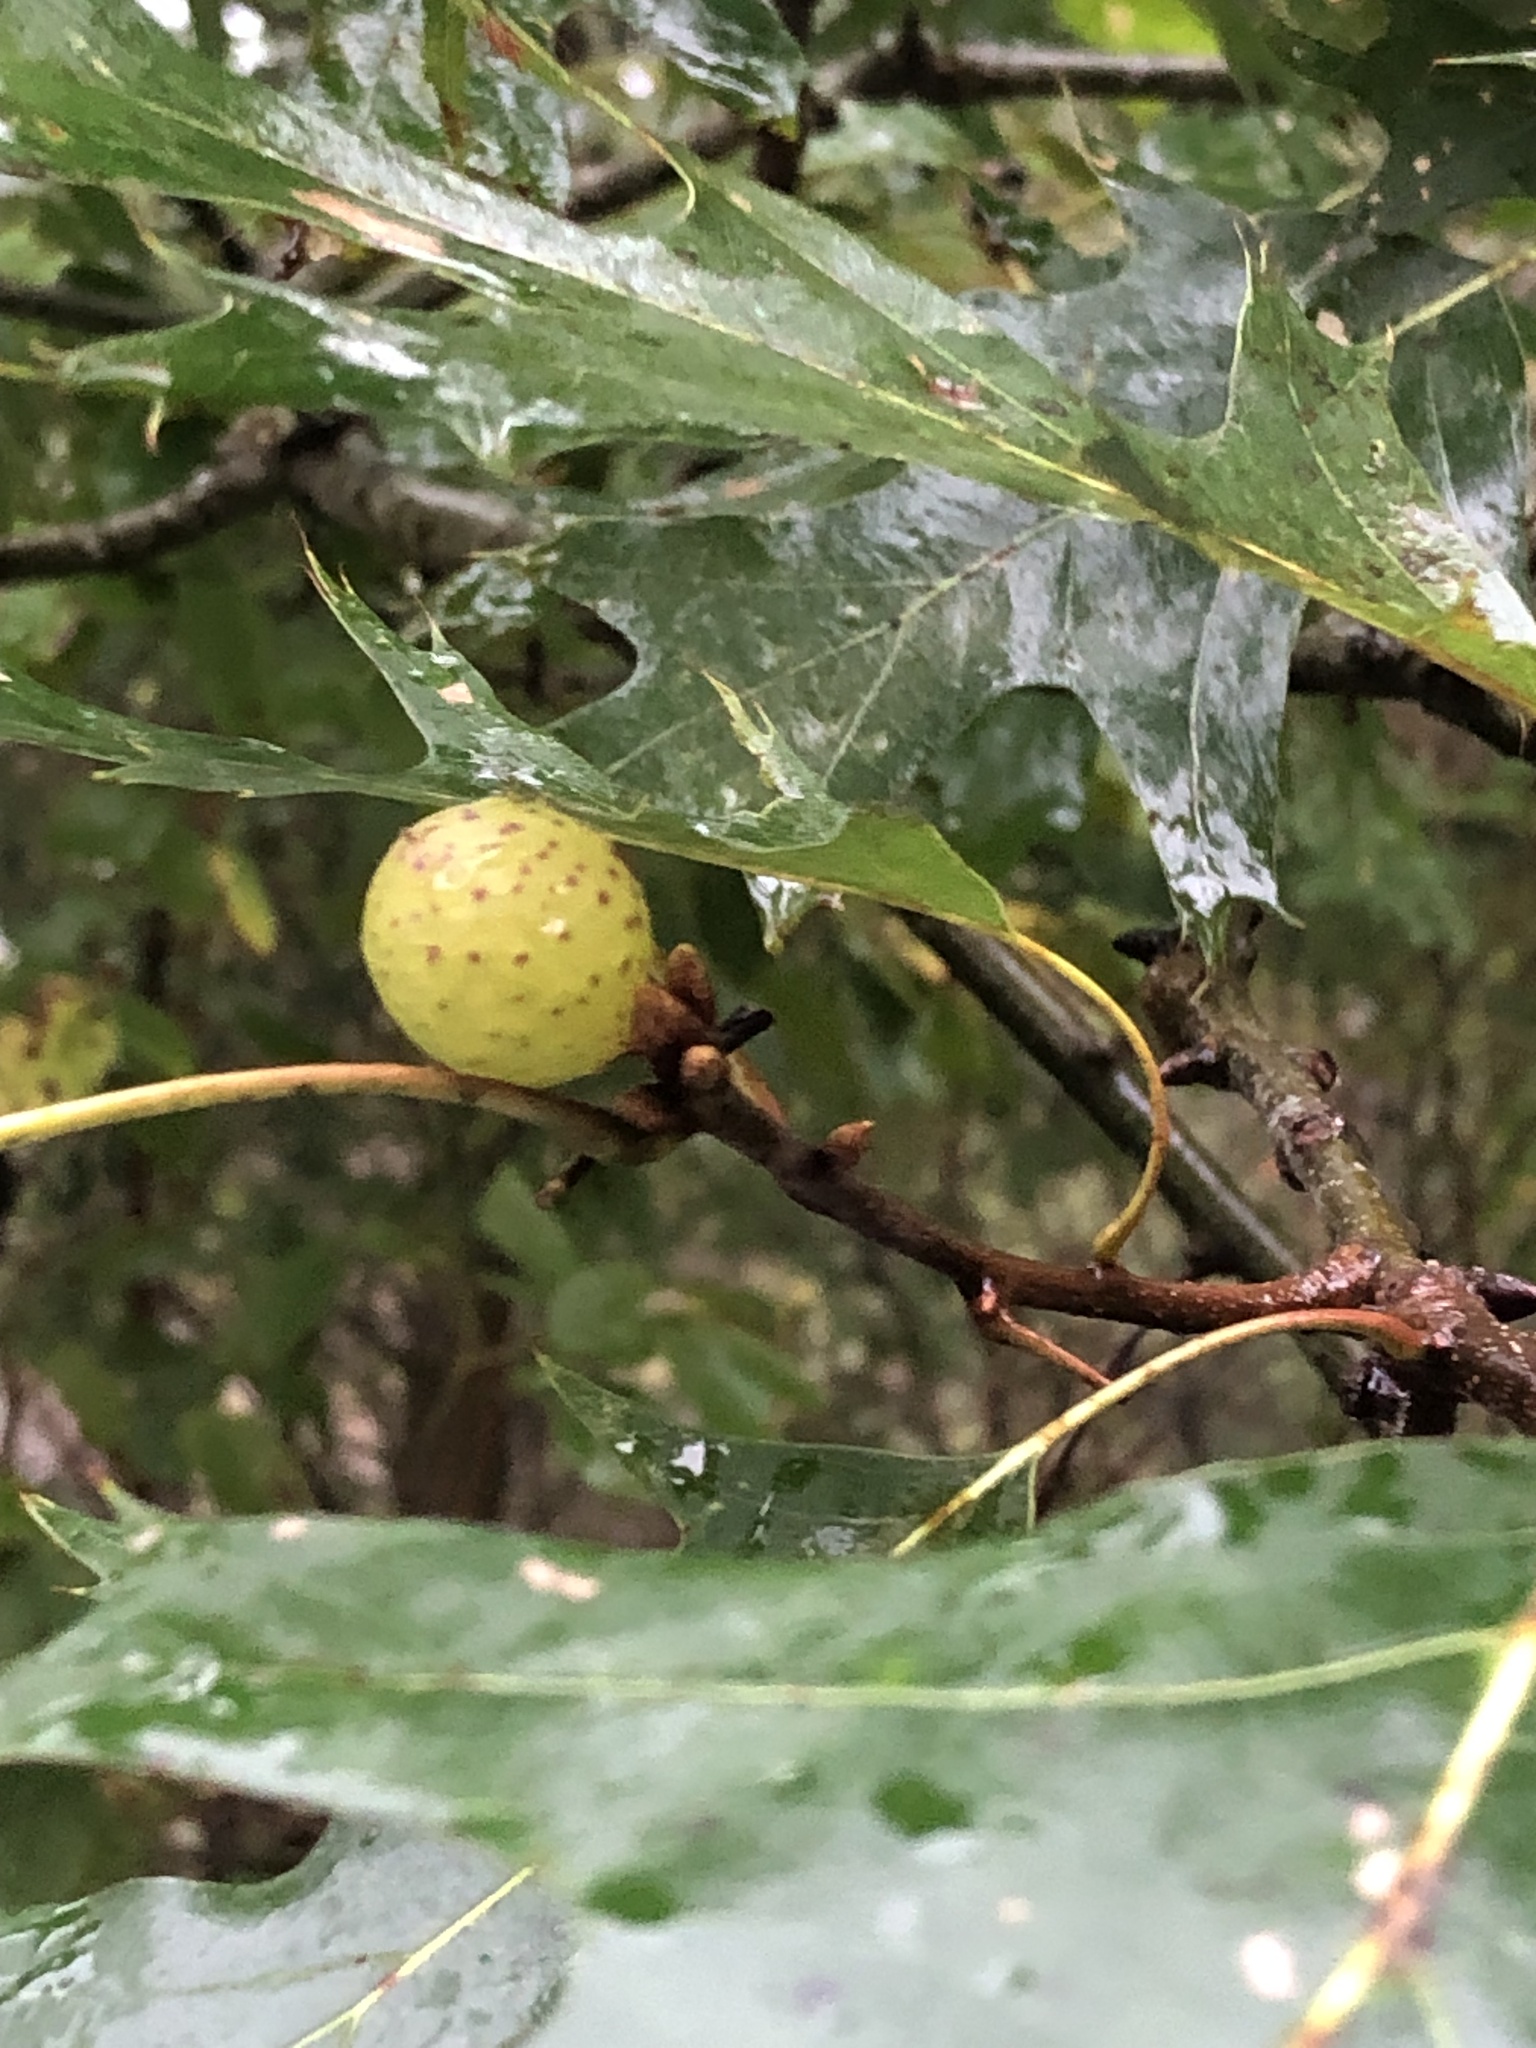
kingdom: Animalia
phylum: Arthropoda
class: Insecta
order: Hymenoptera
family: Cynipidae
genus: Amphibolips
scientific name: Amphibolips
